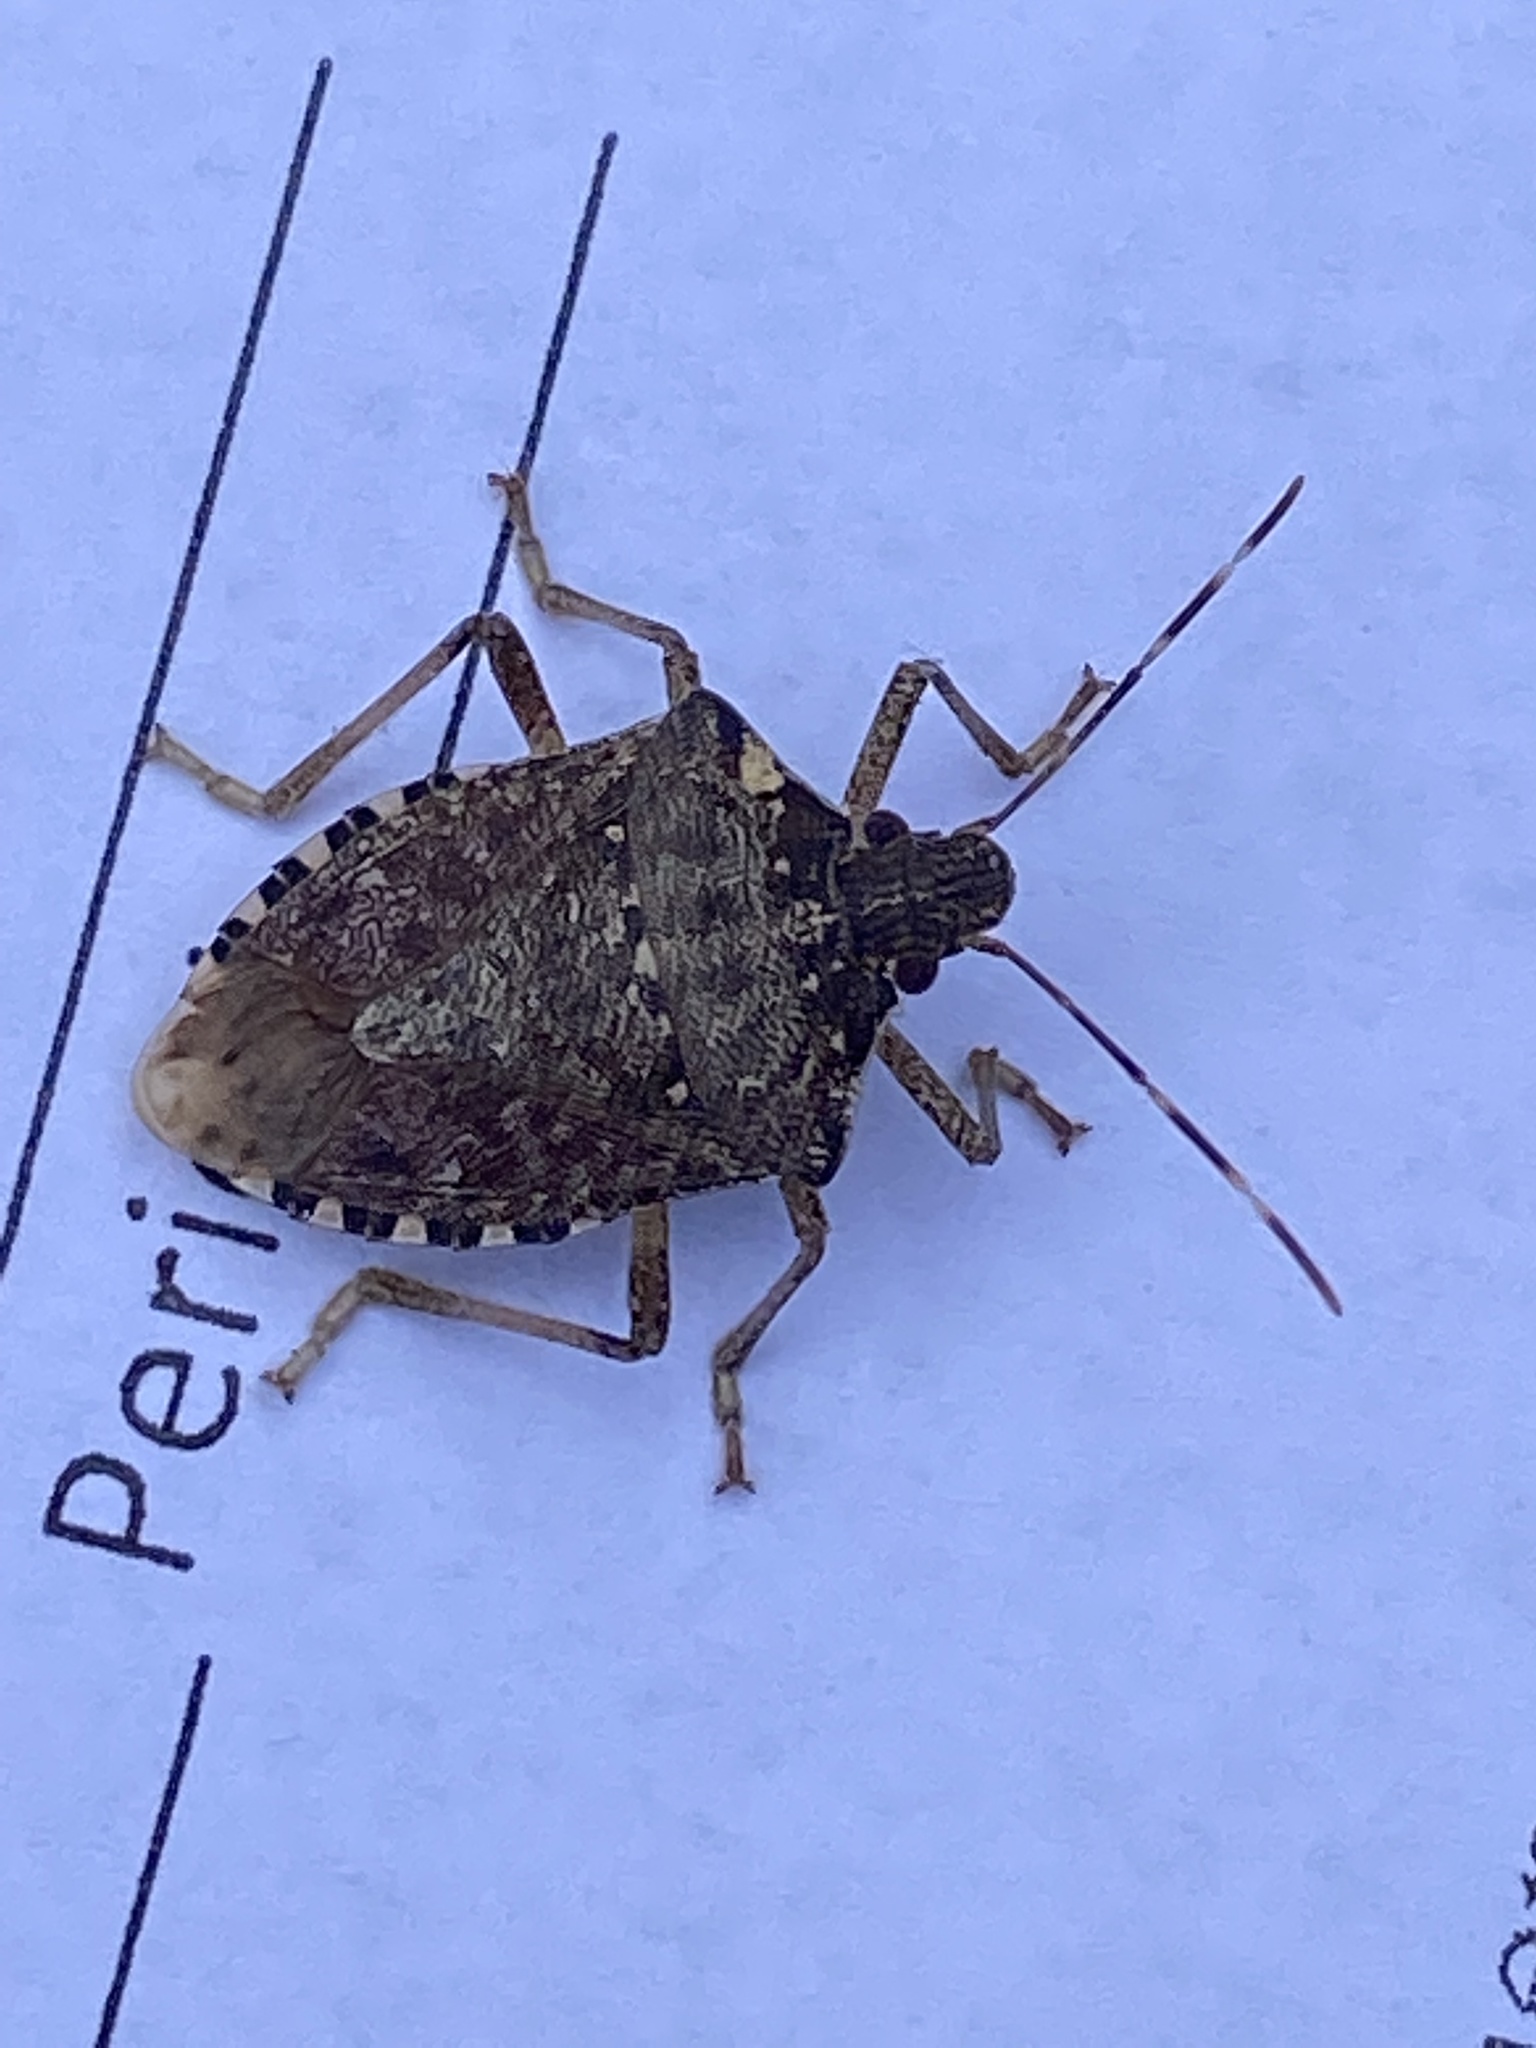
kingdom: Animalia
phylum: Arthropoda
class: Insecta
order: Hemiptera
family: Pentatomidae
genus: Halyomorpha
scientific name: Halyomorpha halys
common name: Brown marmorated stink bug
